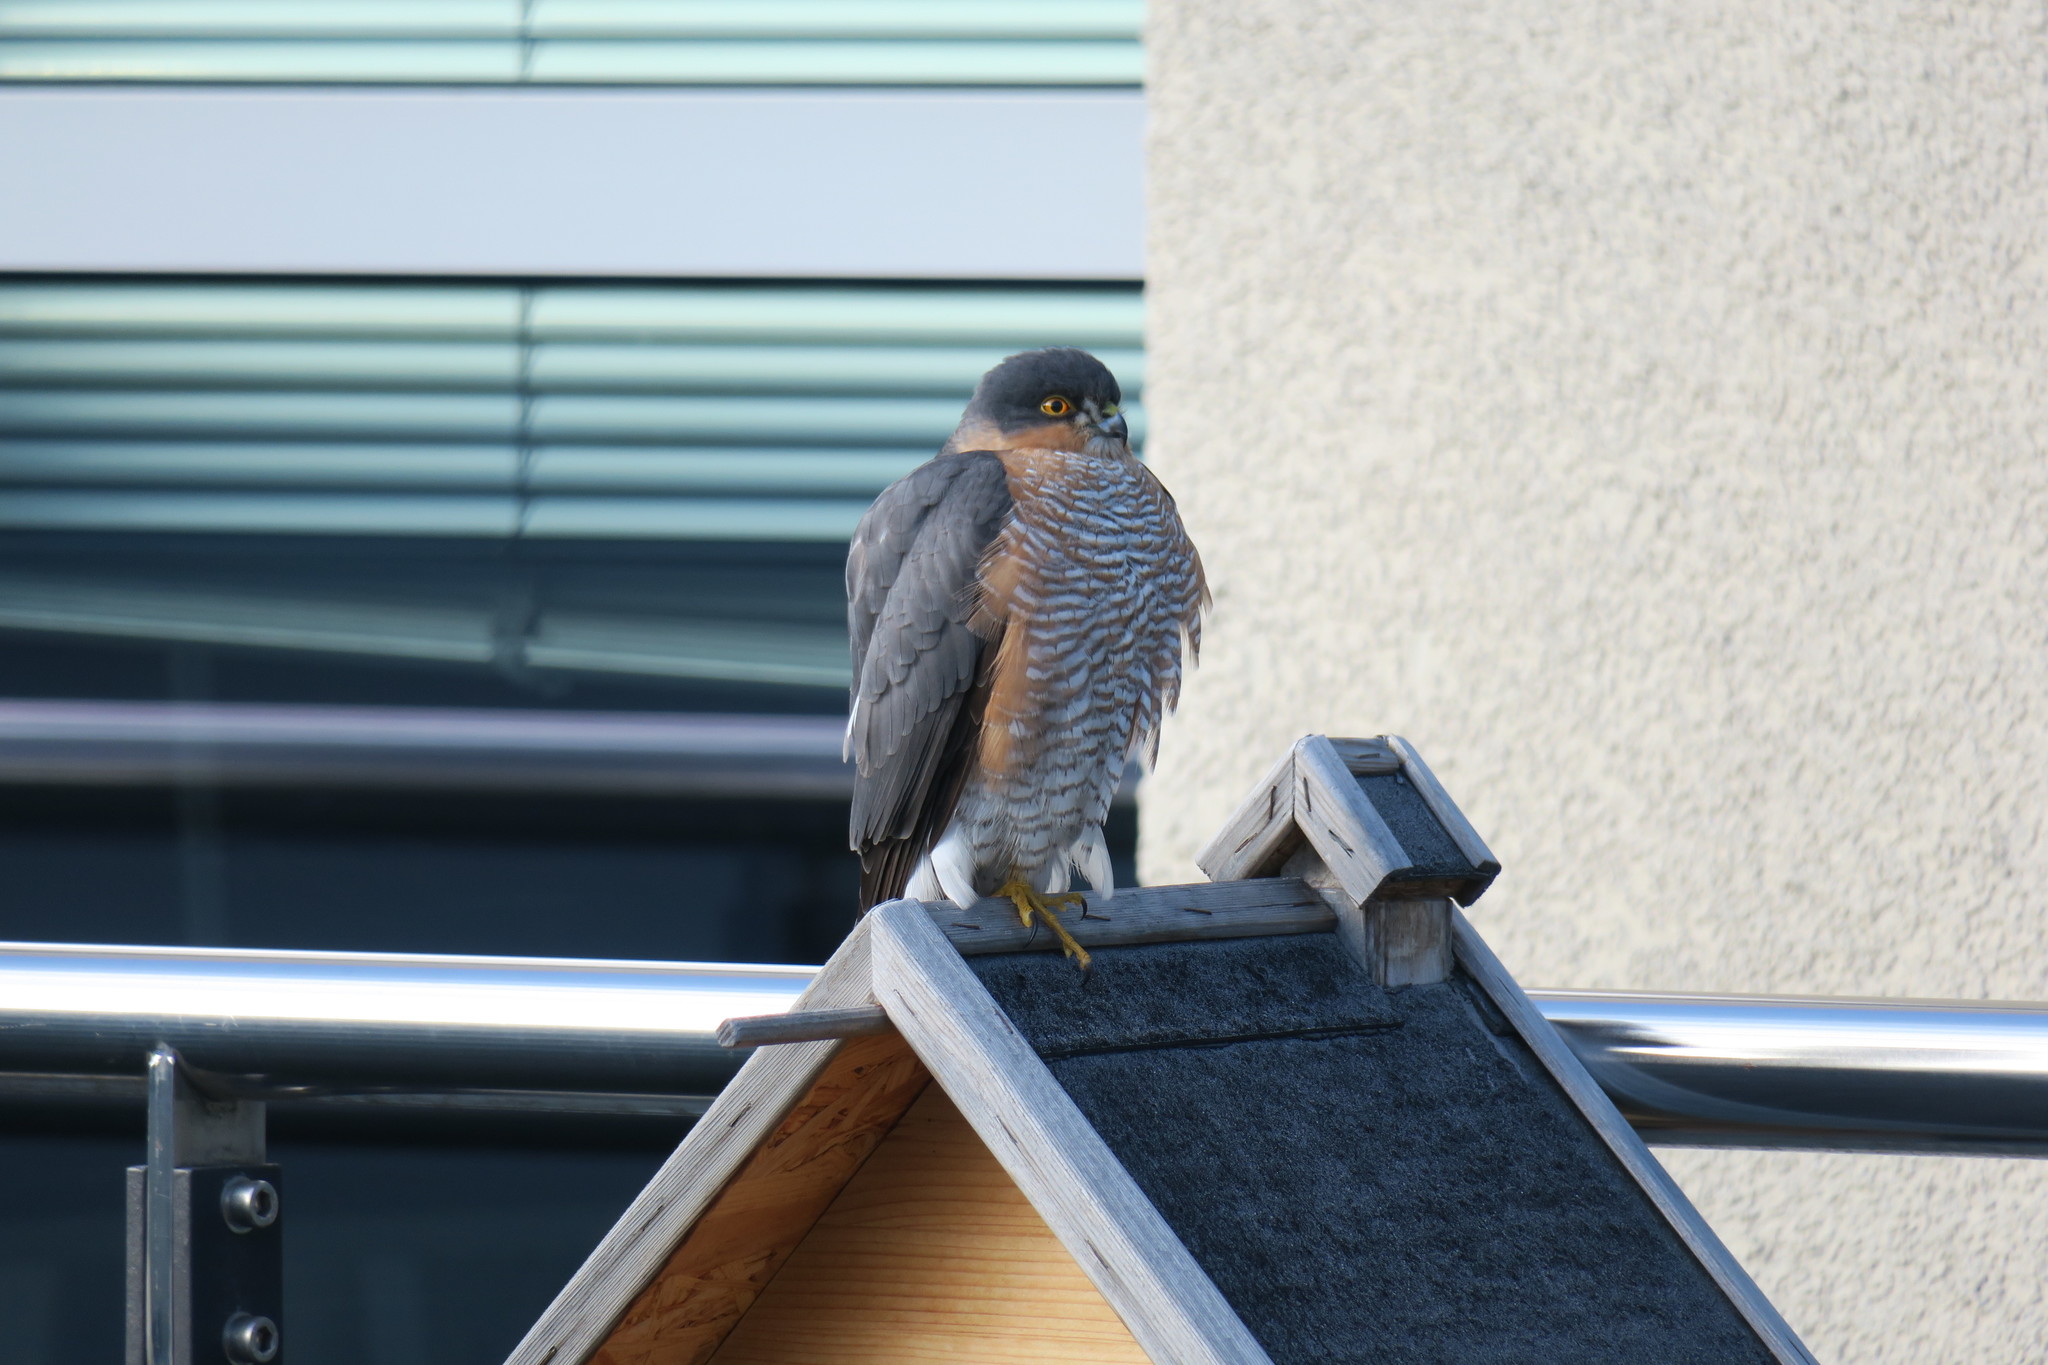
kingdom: Animalia
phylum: Chordata
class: Aves
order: Accipitriformes
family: Accipitridae
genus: Accipiter
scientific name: Accipiter nisus
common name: Eurasian sparrowhawk
